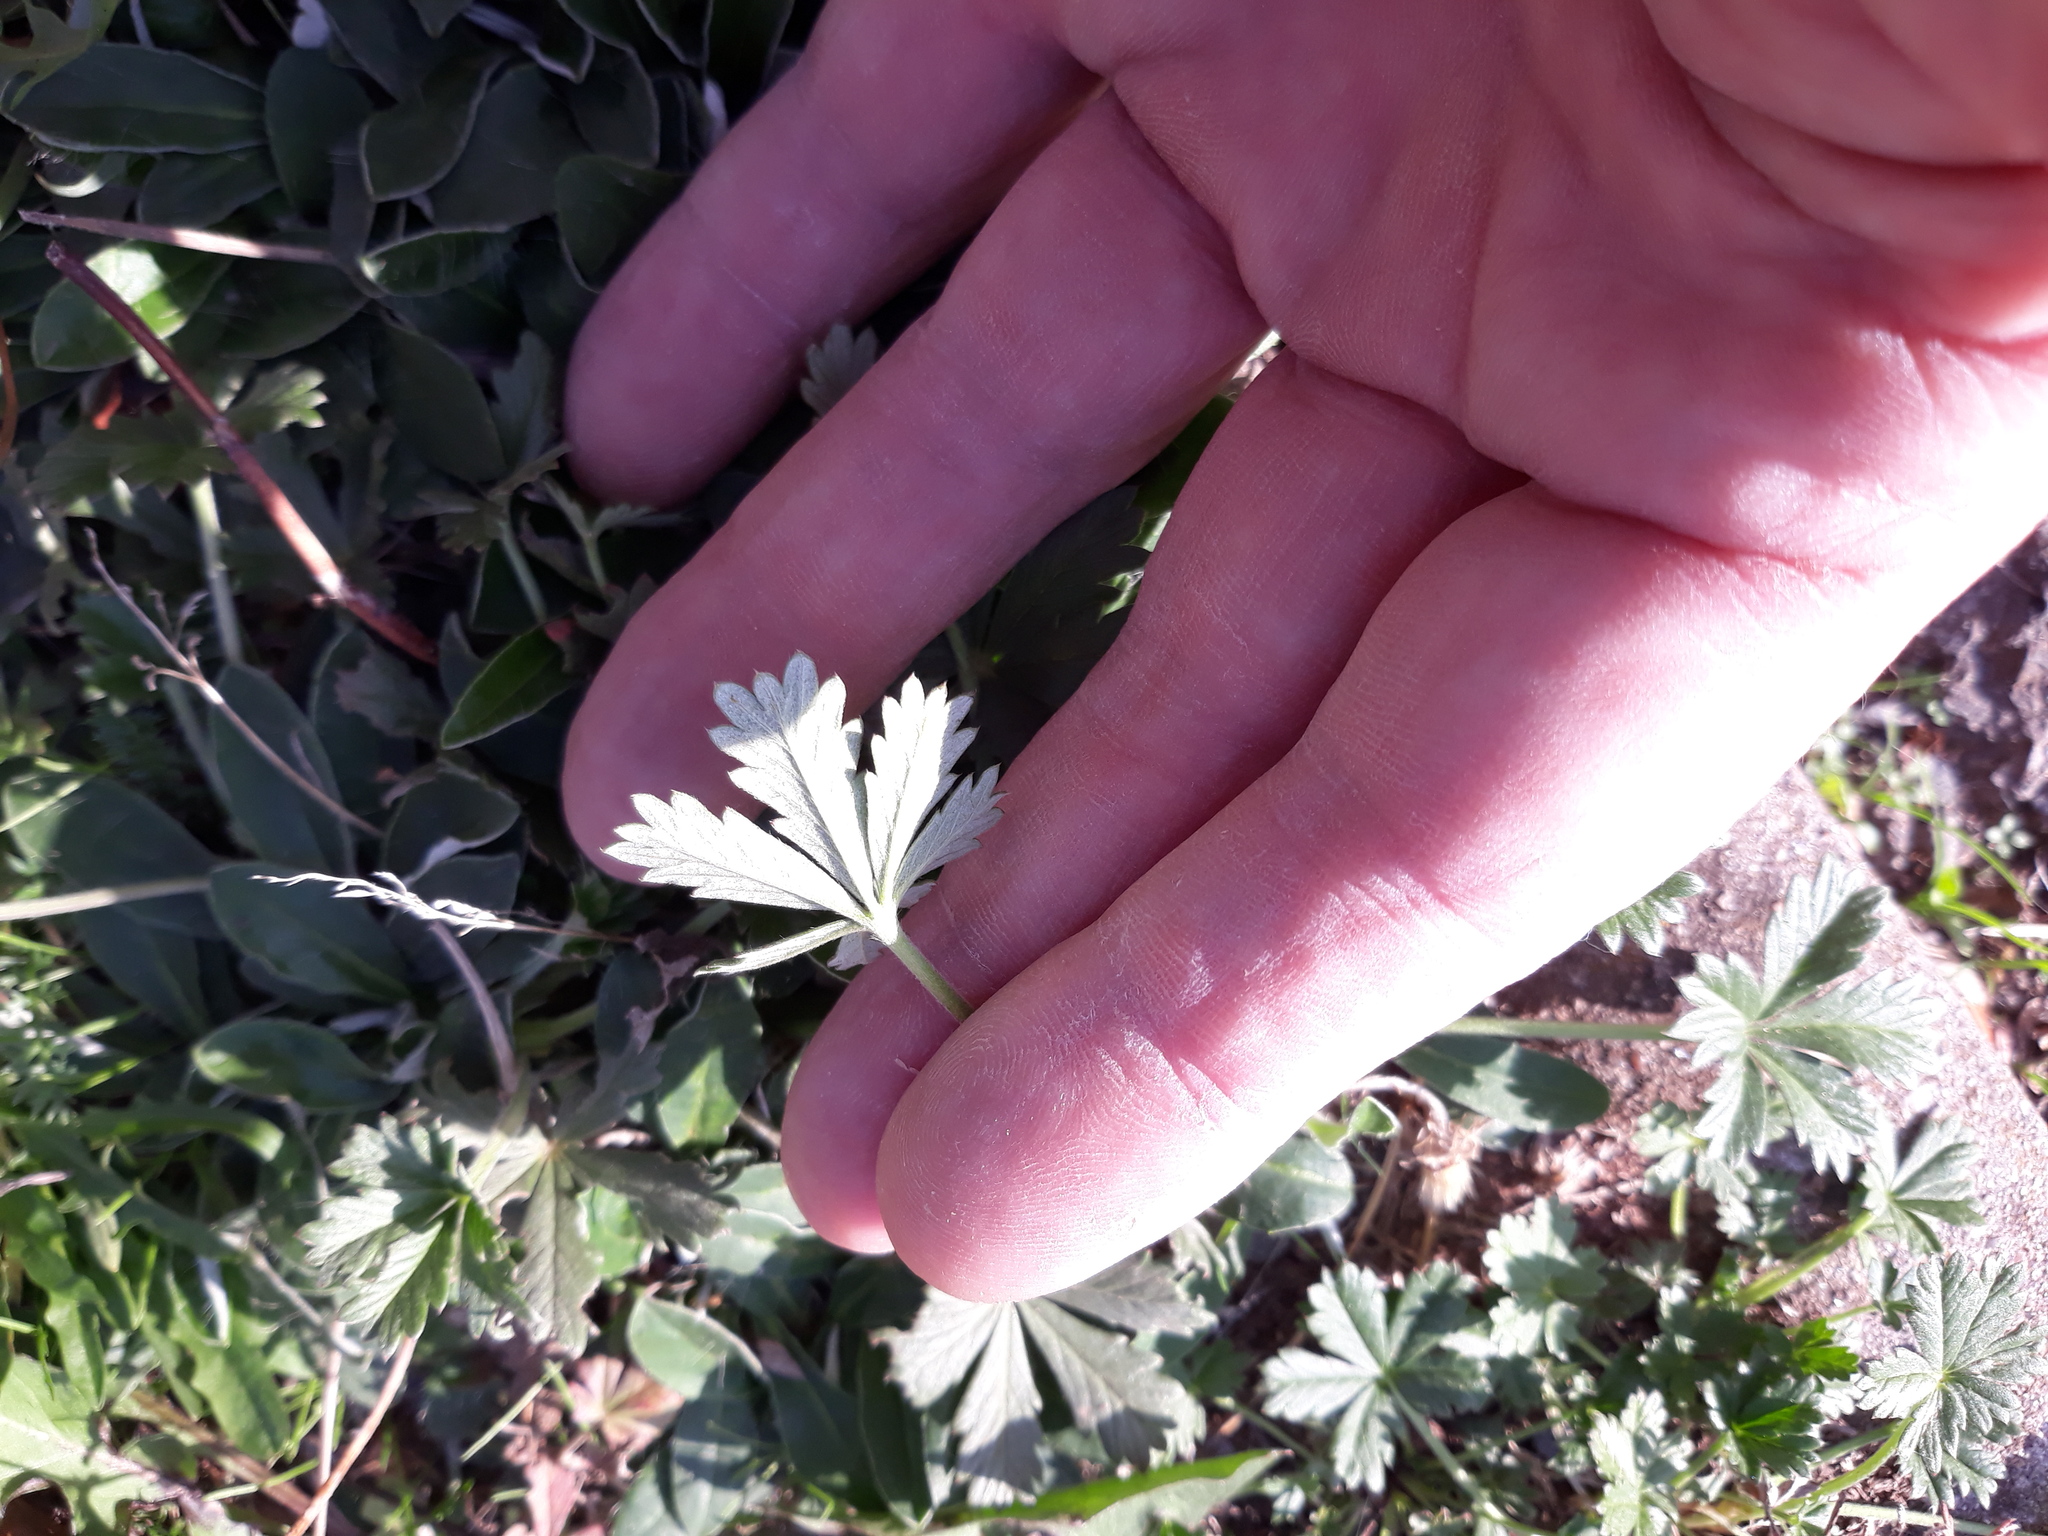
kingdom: Plantae
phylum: Tracheophyta
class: Magnoliopsida
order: Rosales
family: Rosaceae
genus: Potentilla
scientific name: Potentilla argentea
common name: Hoary cinquefoil
